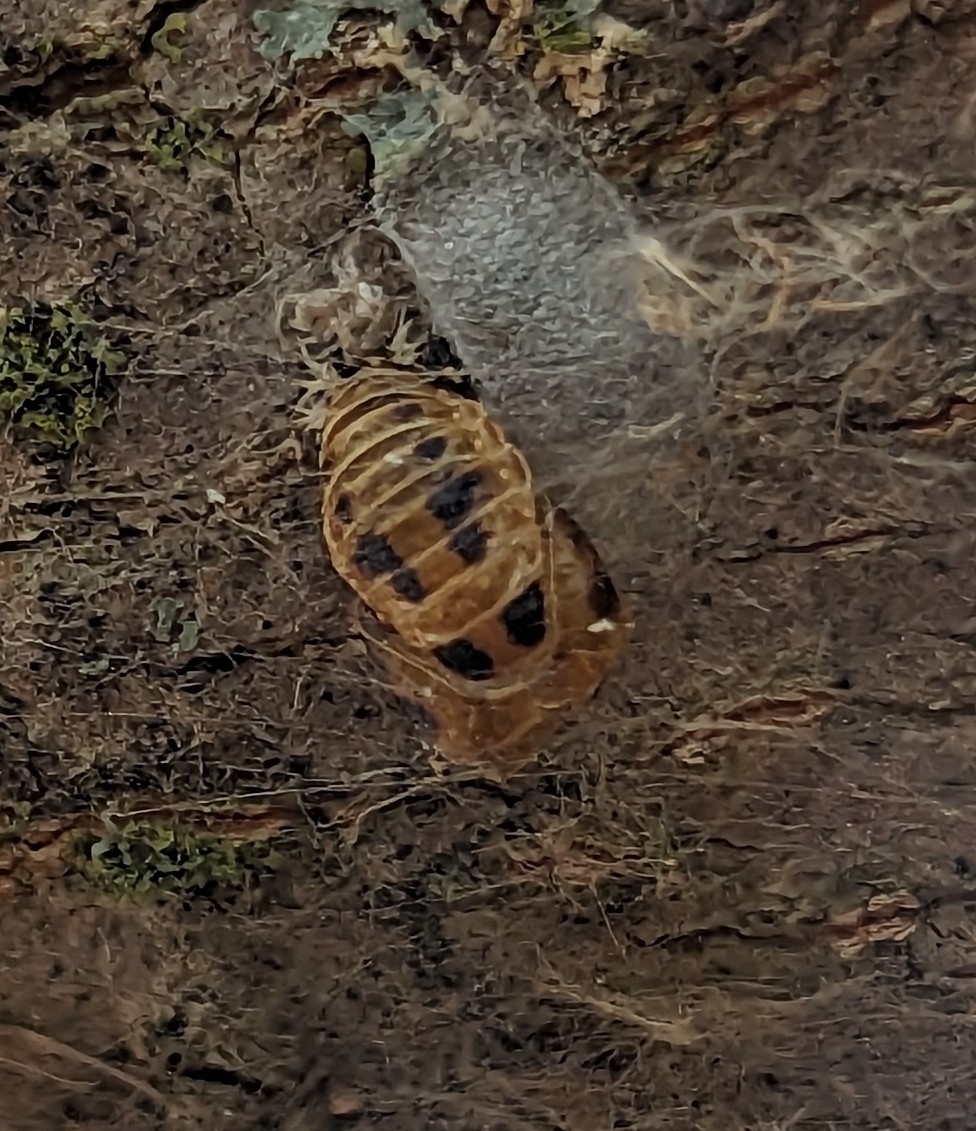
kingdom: Animalia
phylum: Arthropoda
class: Insecta
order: Coleoptera
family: Coccinellidae
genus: Harmonia
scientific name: Harmonia axyridis
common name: Harlequin ladybird
